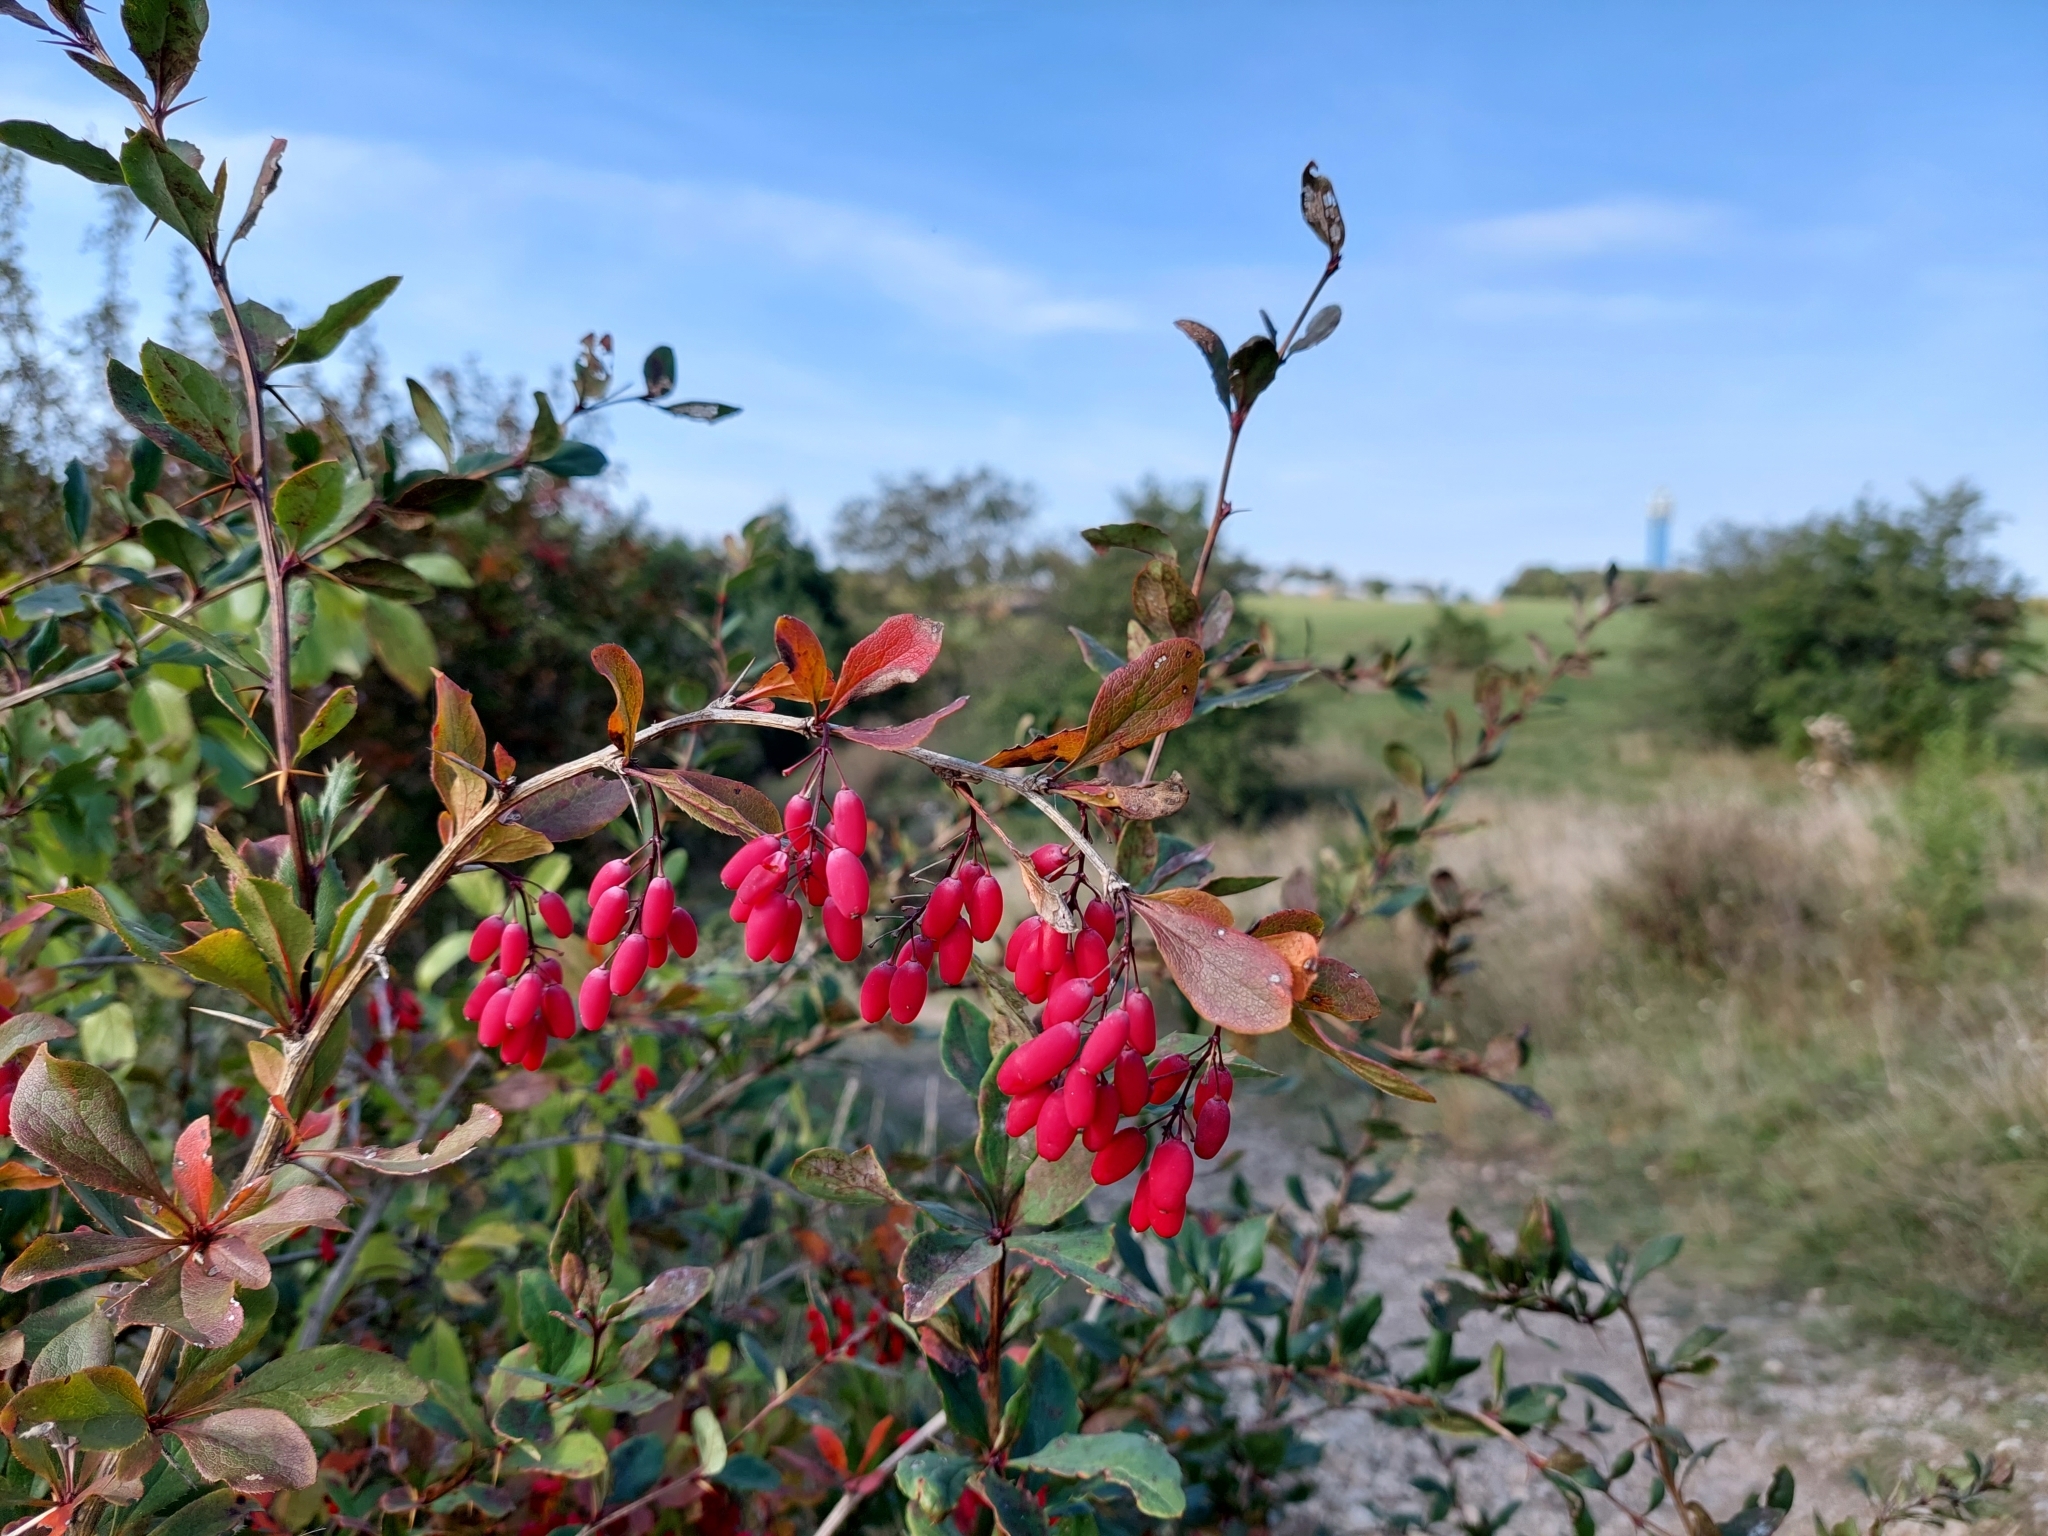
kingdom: Plantae
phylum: Tracheophyta
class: Magnoliopsida
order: Ranunculales
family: Berberidaceae
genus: Berberis
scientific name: Berberis vulgaris
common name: Barberry
